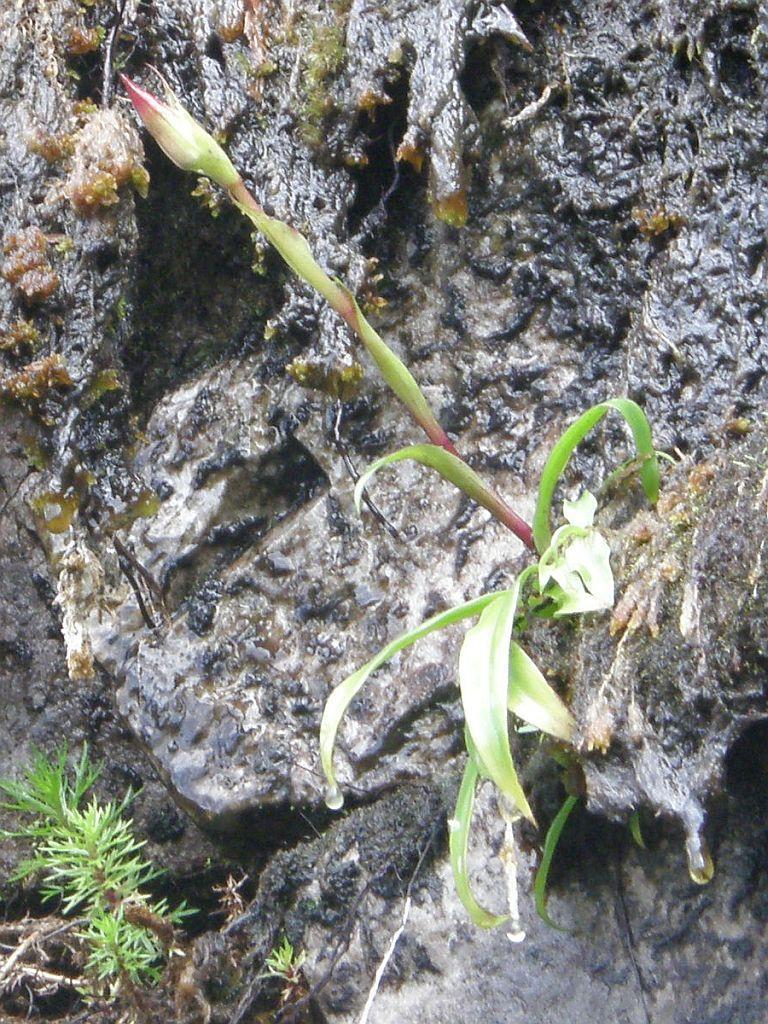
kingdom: Plantae
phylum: Tracheophyta
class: Liliopsida
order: Asparagales
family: Orchidaceae
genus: Disa
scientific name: Disa uniflora
